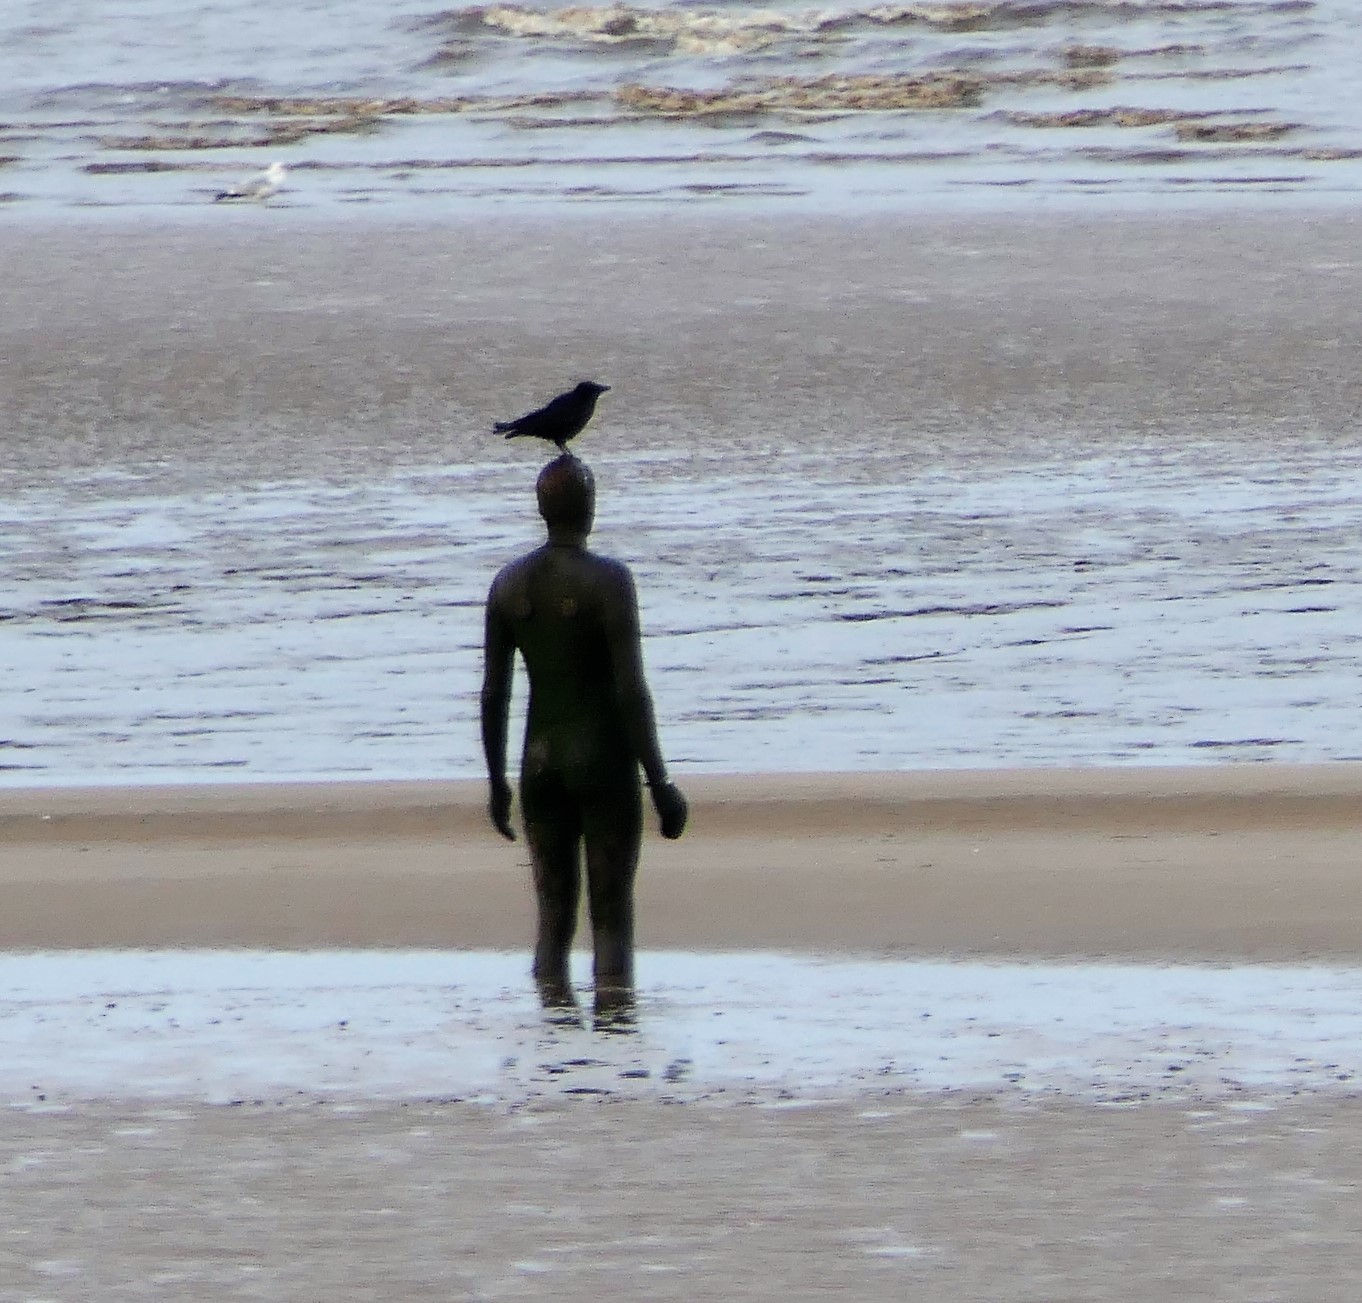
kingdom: Animalia
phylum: Chordata
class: Aves
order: Passeriformes
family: Corvidae
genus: Corvus
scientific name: Corvus corone
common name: Carrion crow
